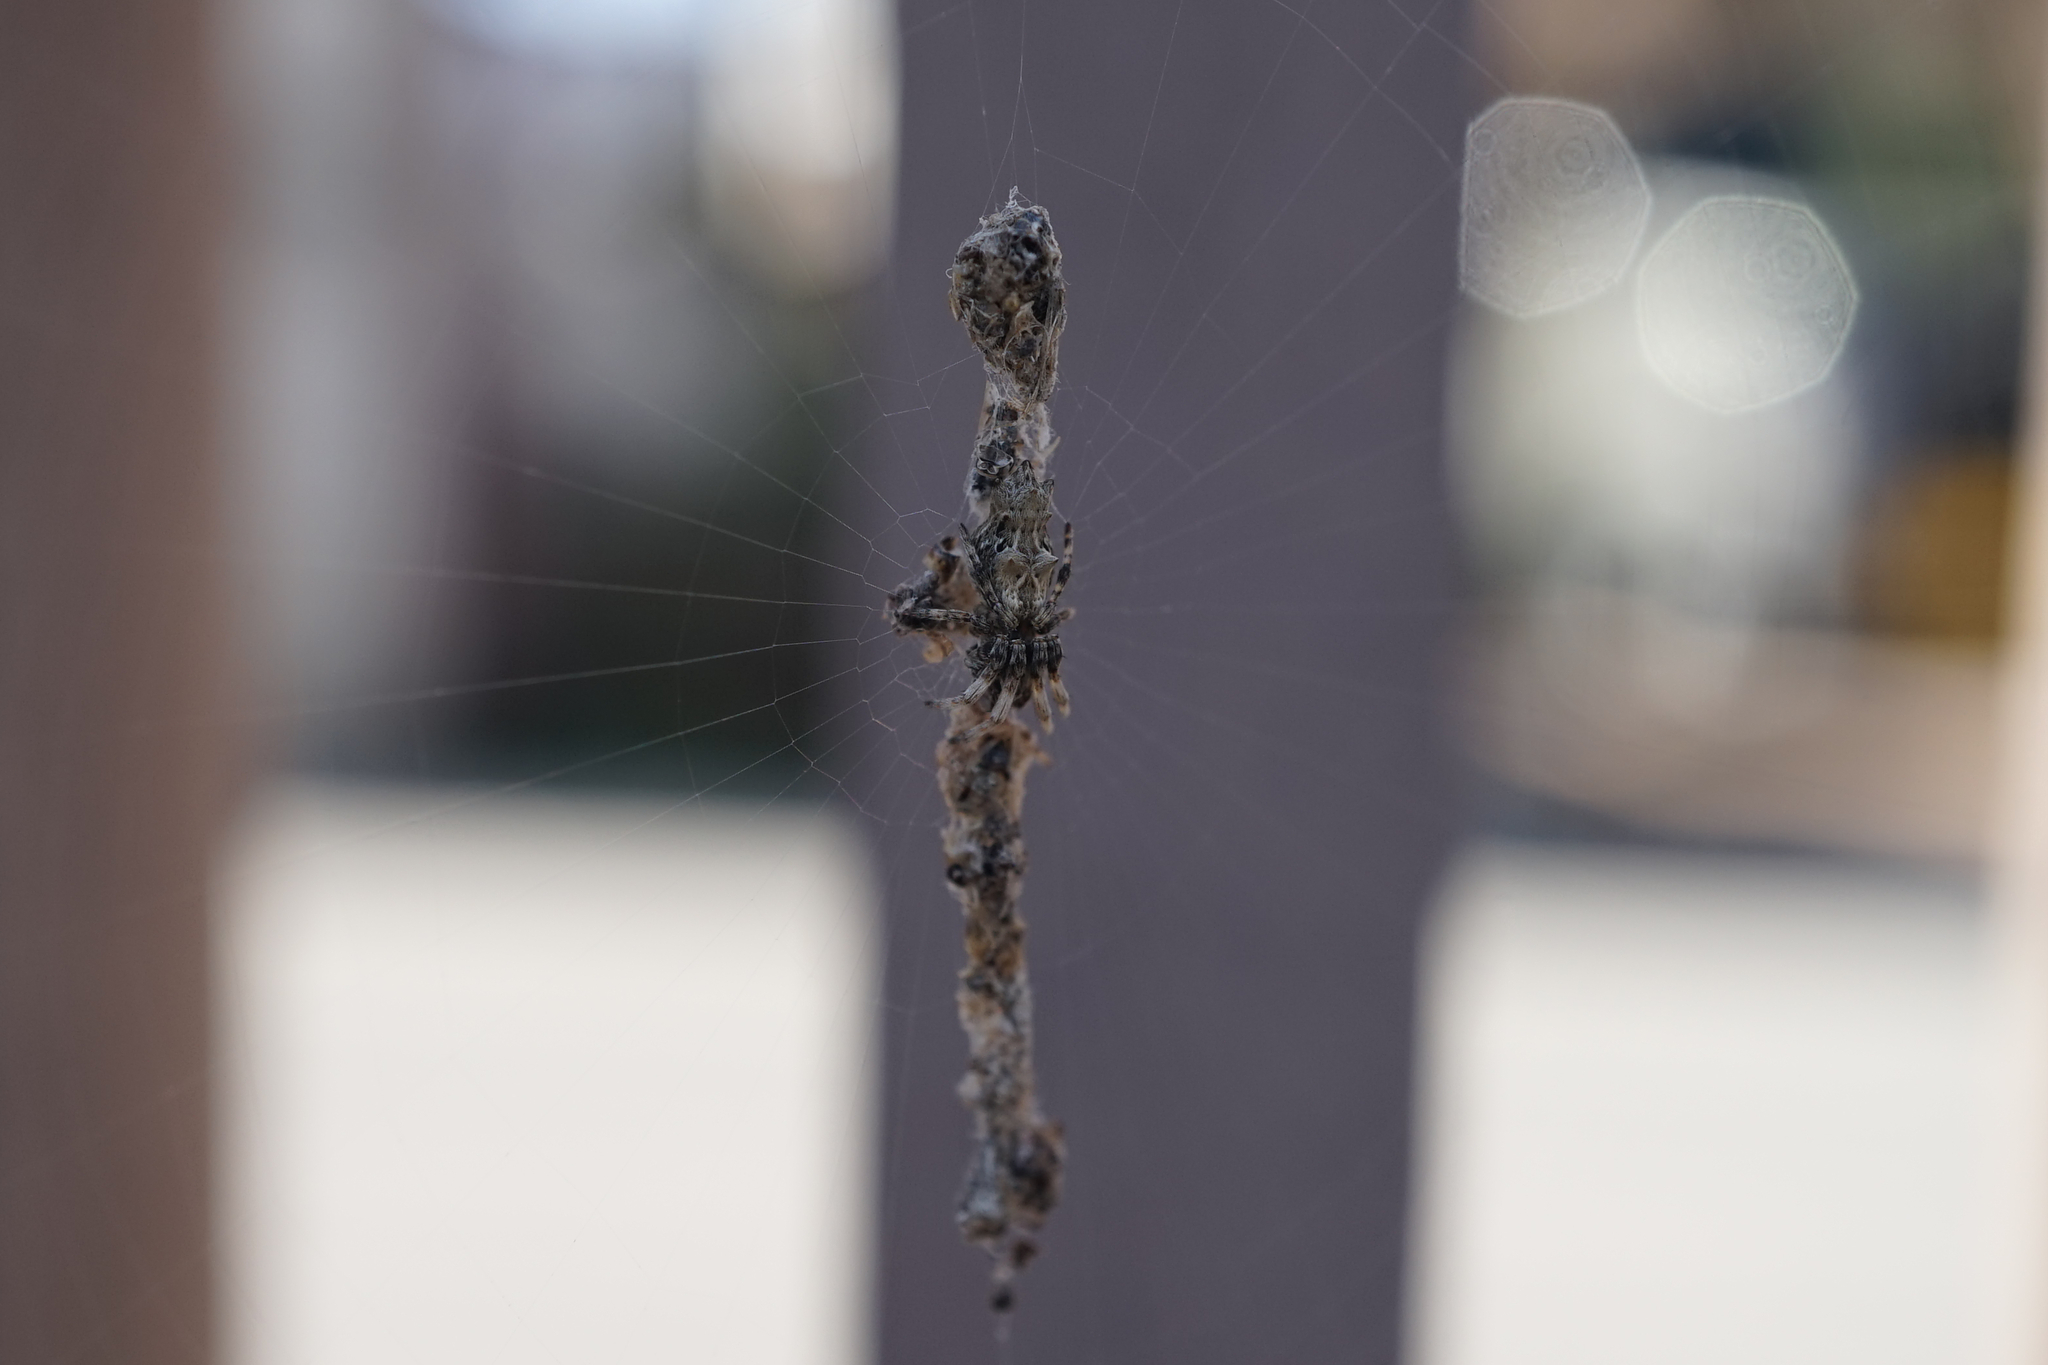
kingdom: Animalia
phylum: Arthropoda
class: Arachnida
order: Araneae
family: Araneidae
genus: Cyclosa
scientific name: Cyclosa octotuberculata
